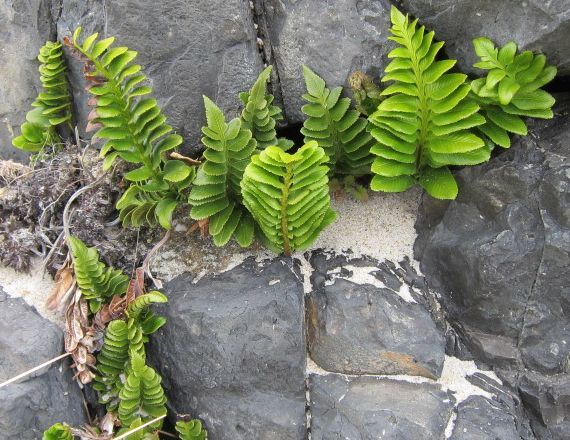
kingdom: Plantae
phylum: Tracheophyta
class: Polypodiopsida
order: Polypodiales
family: Aspleniaceae
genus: Asplenium
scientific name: Asplenium obtusatum
